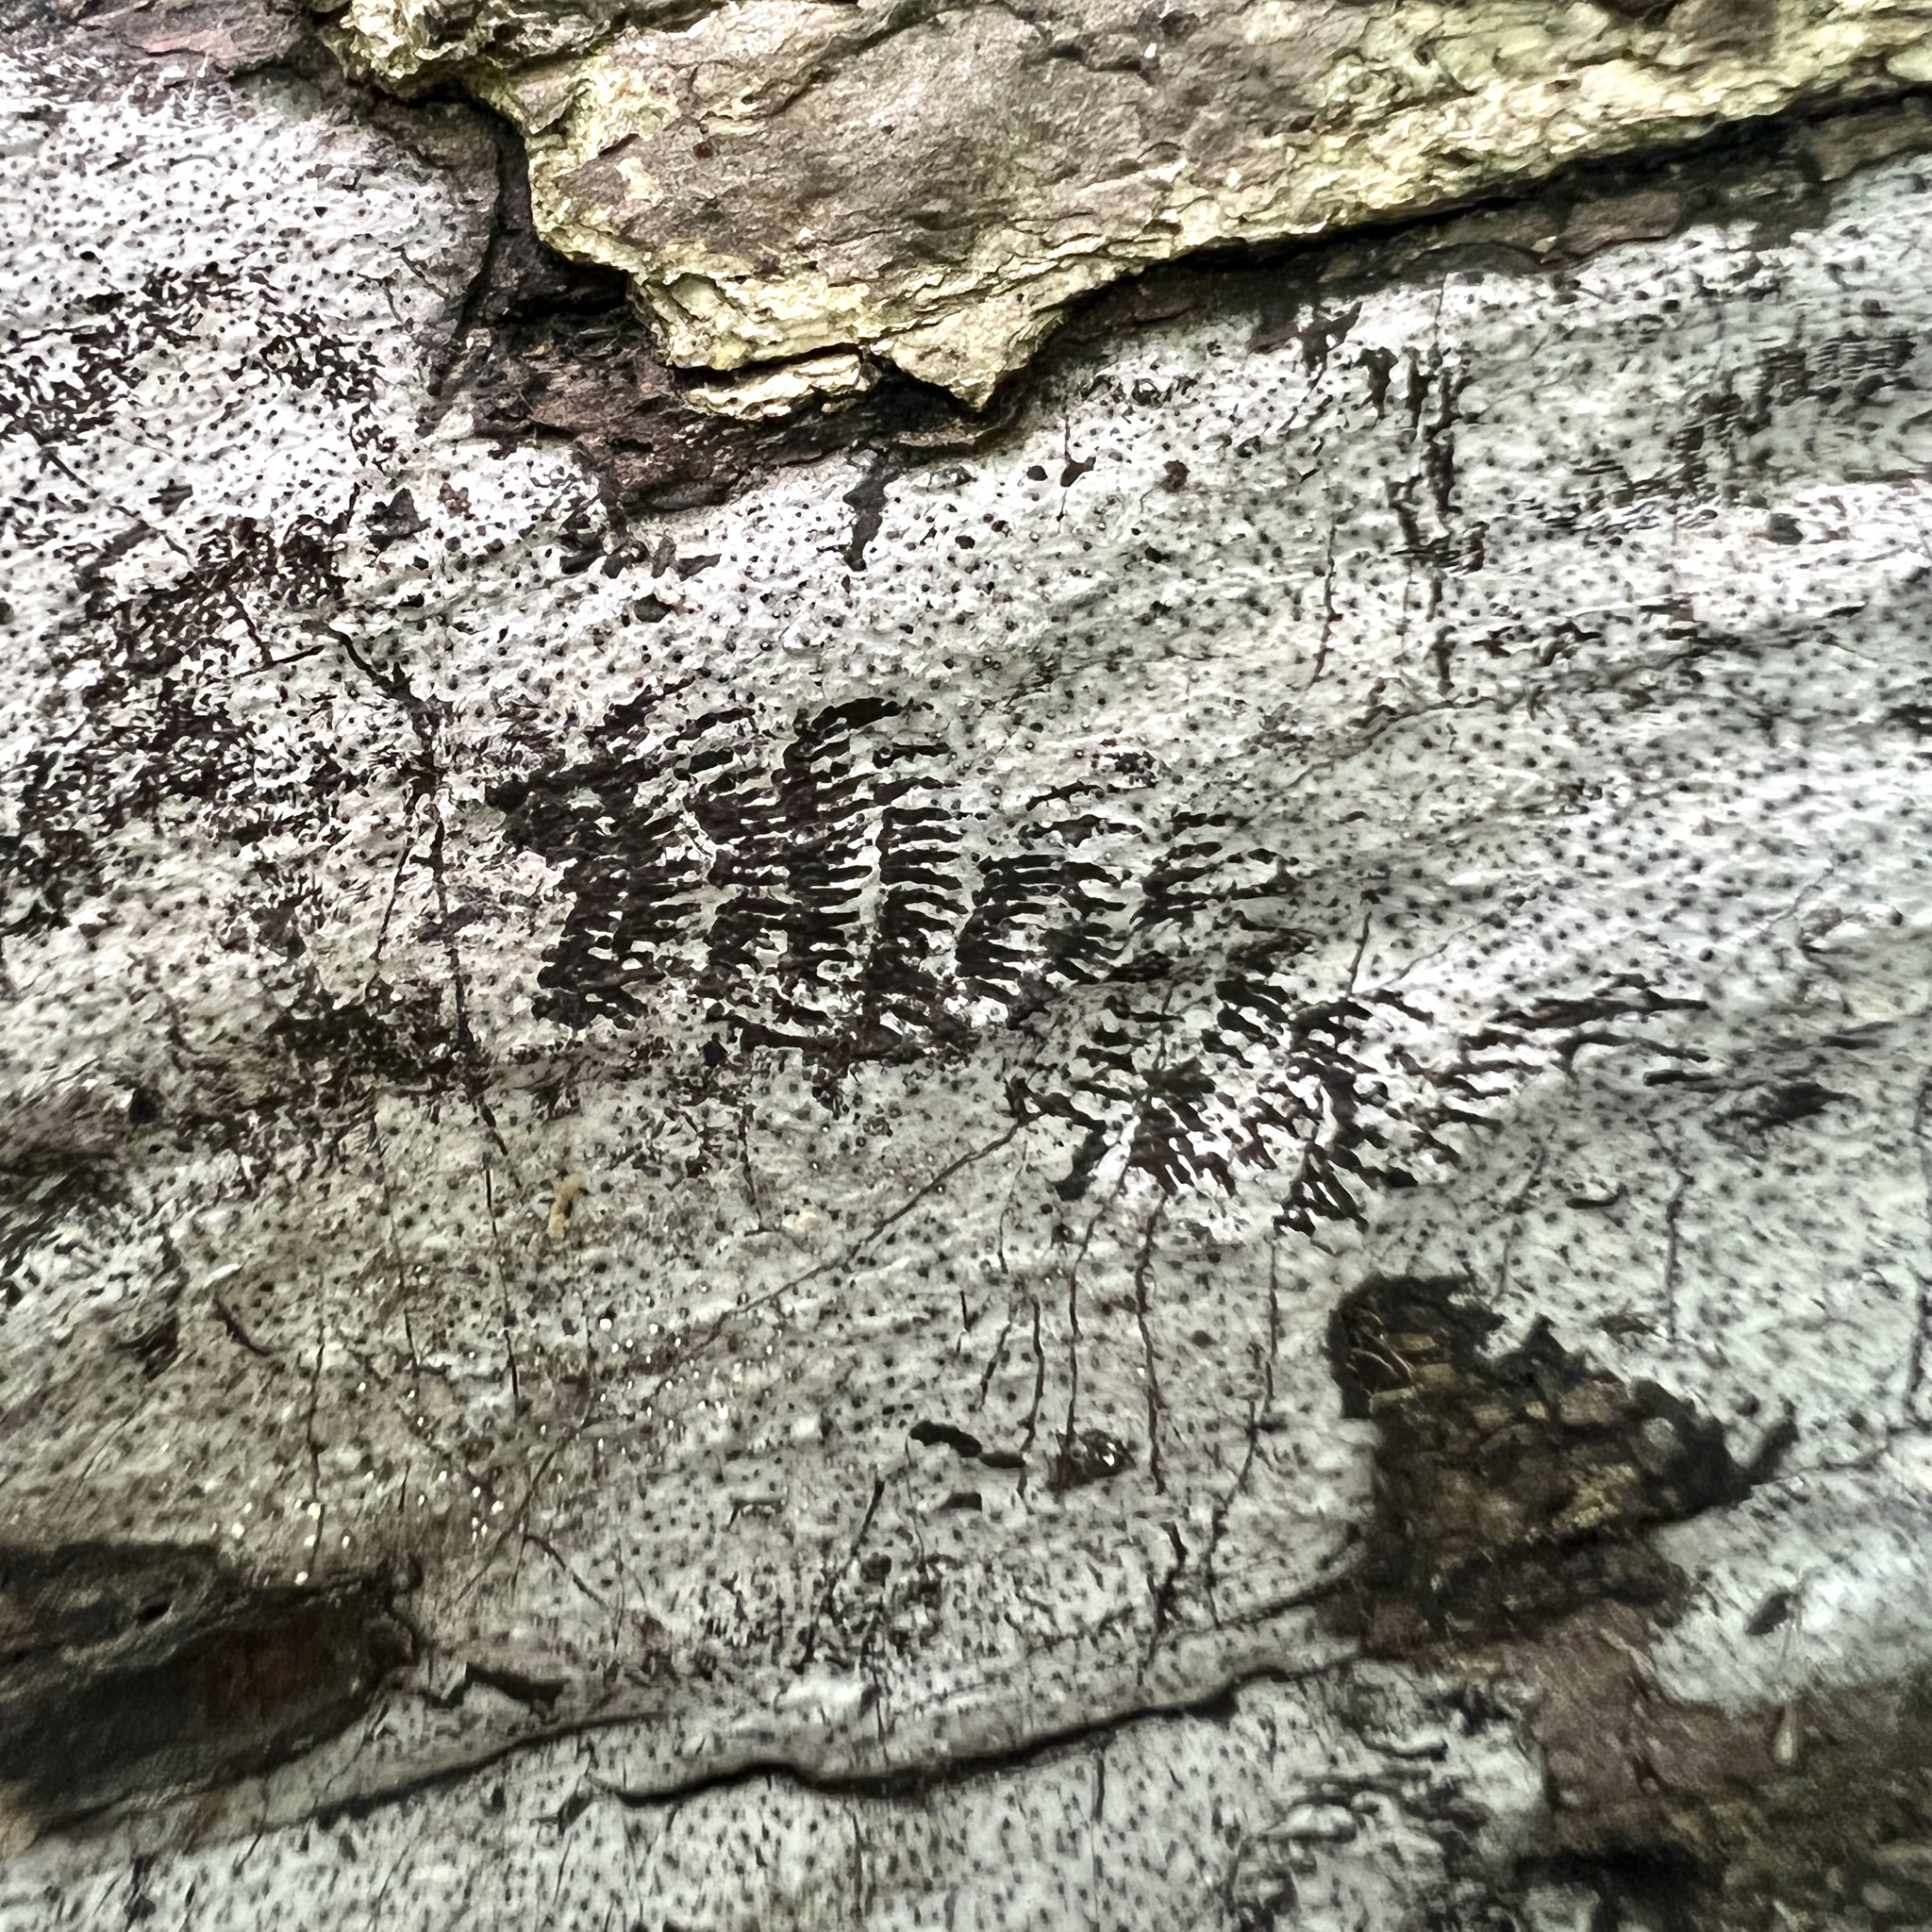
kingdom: Fungi
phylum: Ascomycota
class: Sordariomycetes
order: Xylariales
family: Graphostromataceae
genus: Biscogniauxia
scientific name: Biscogniauxia atropunctata
